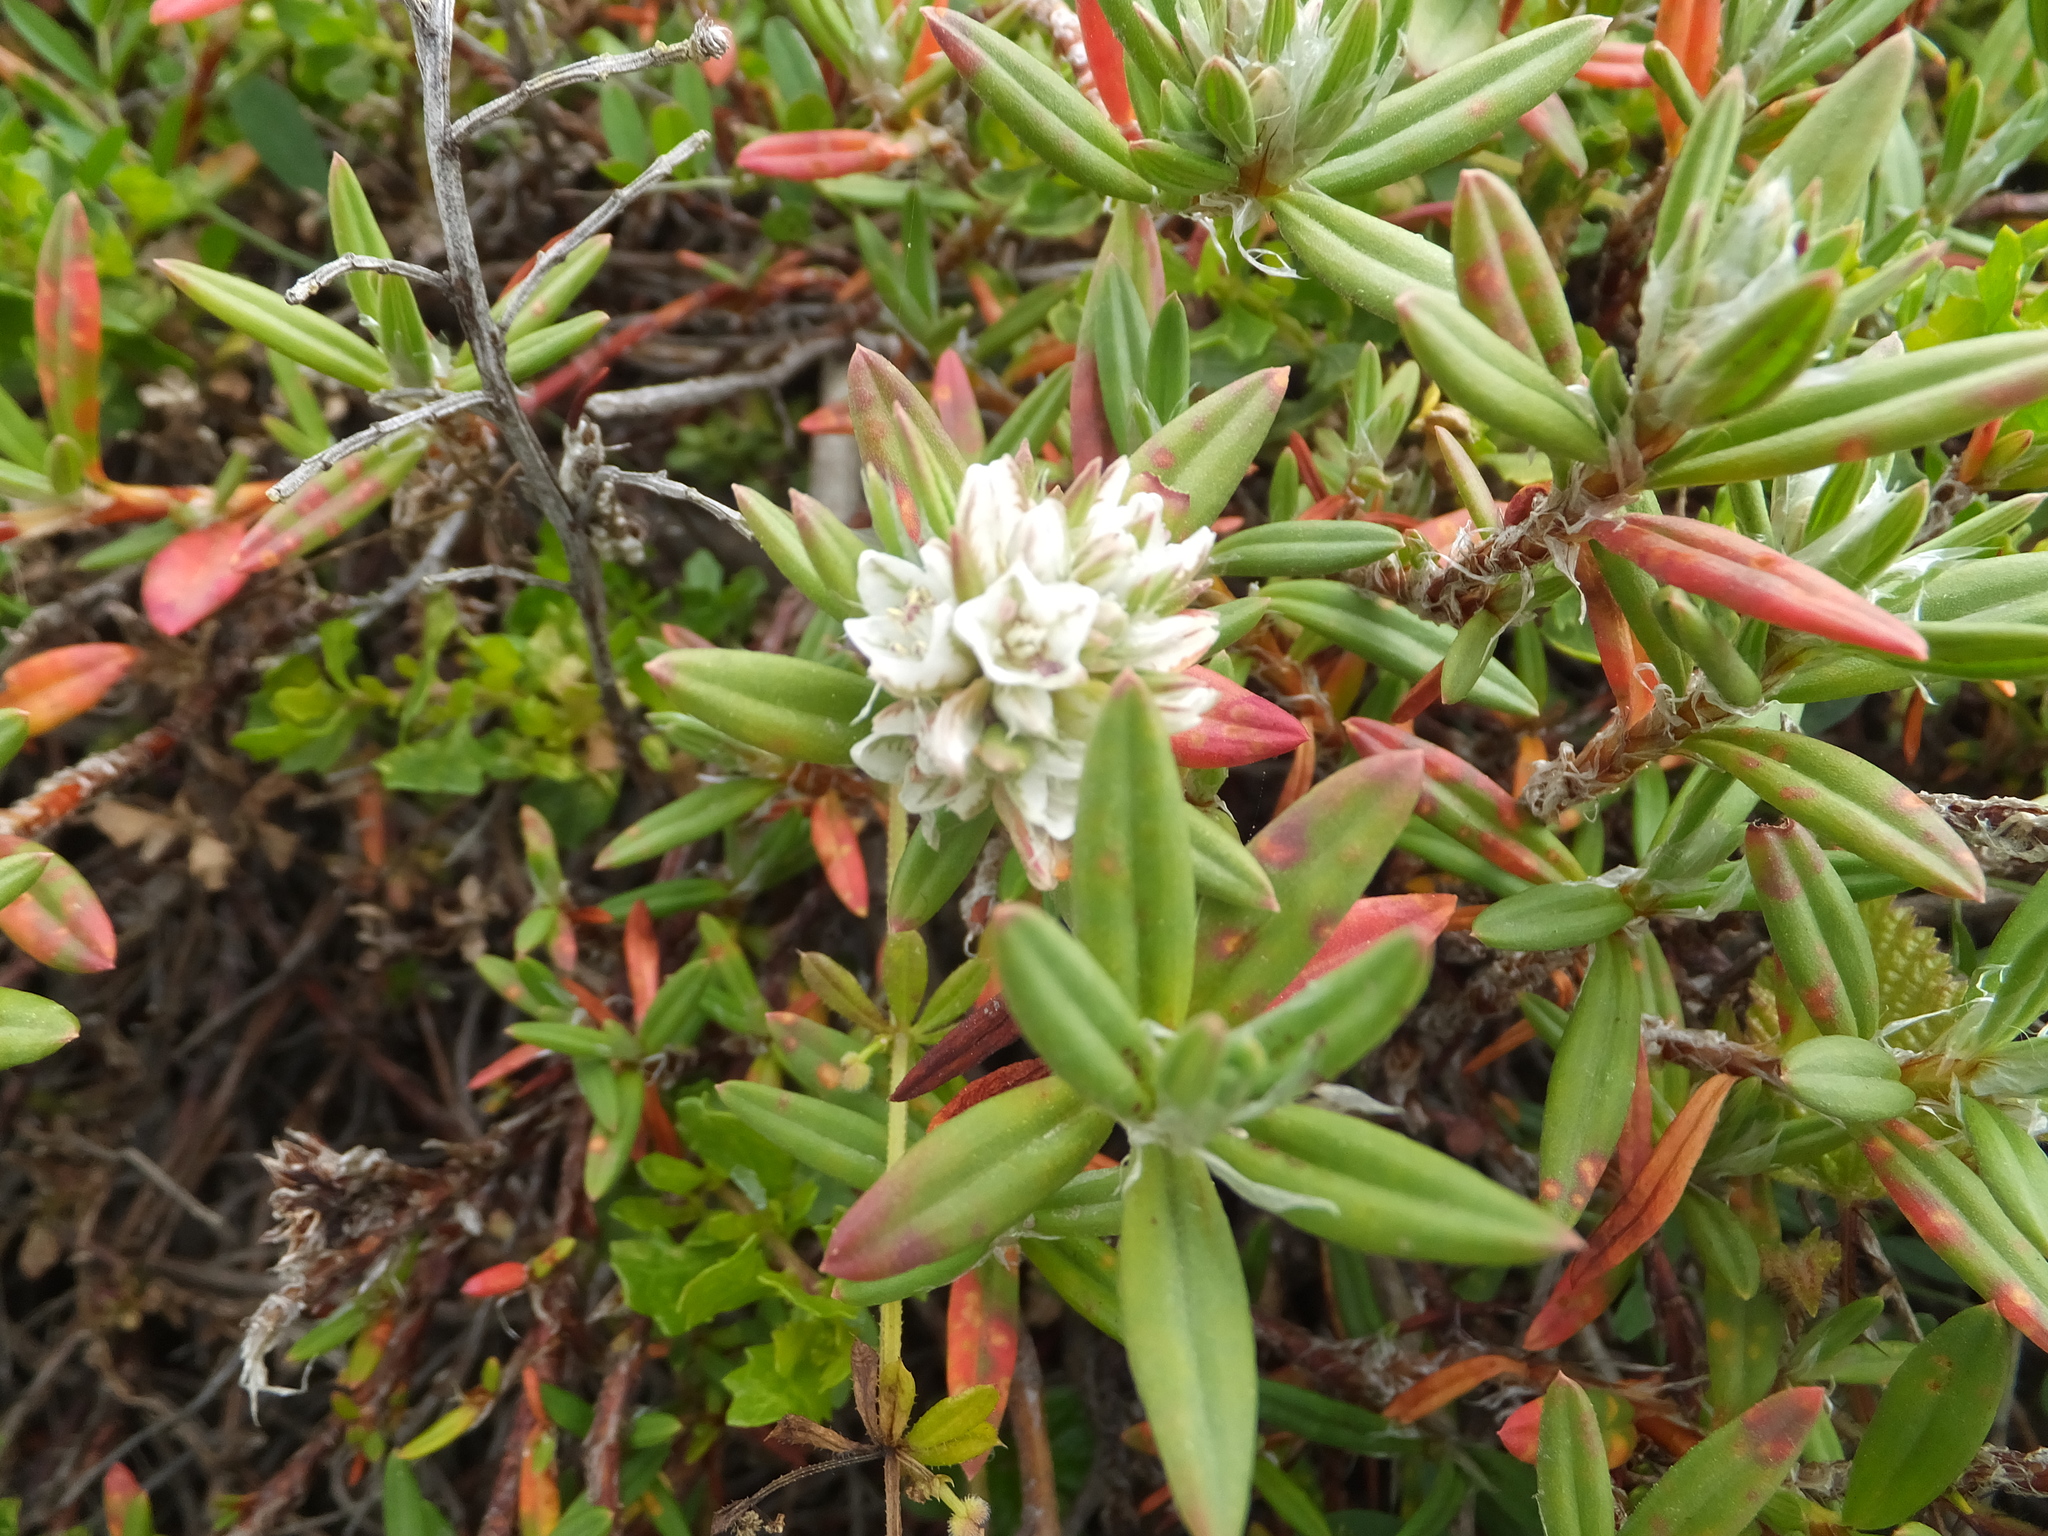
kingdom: Plantae
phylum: Tracheophyta
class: Magnoliopsida
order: Caryophyllales
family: Polygonaceae
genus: Polygonum
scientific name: Polygonum paronychia
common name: Dune knotweed
